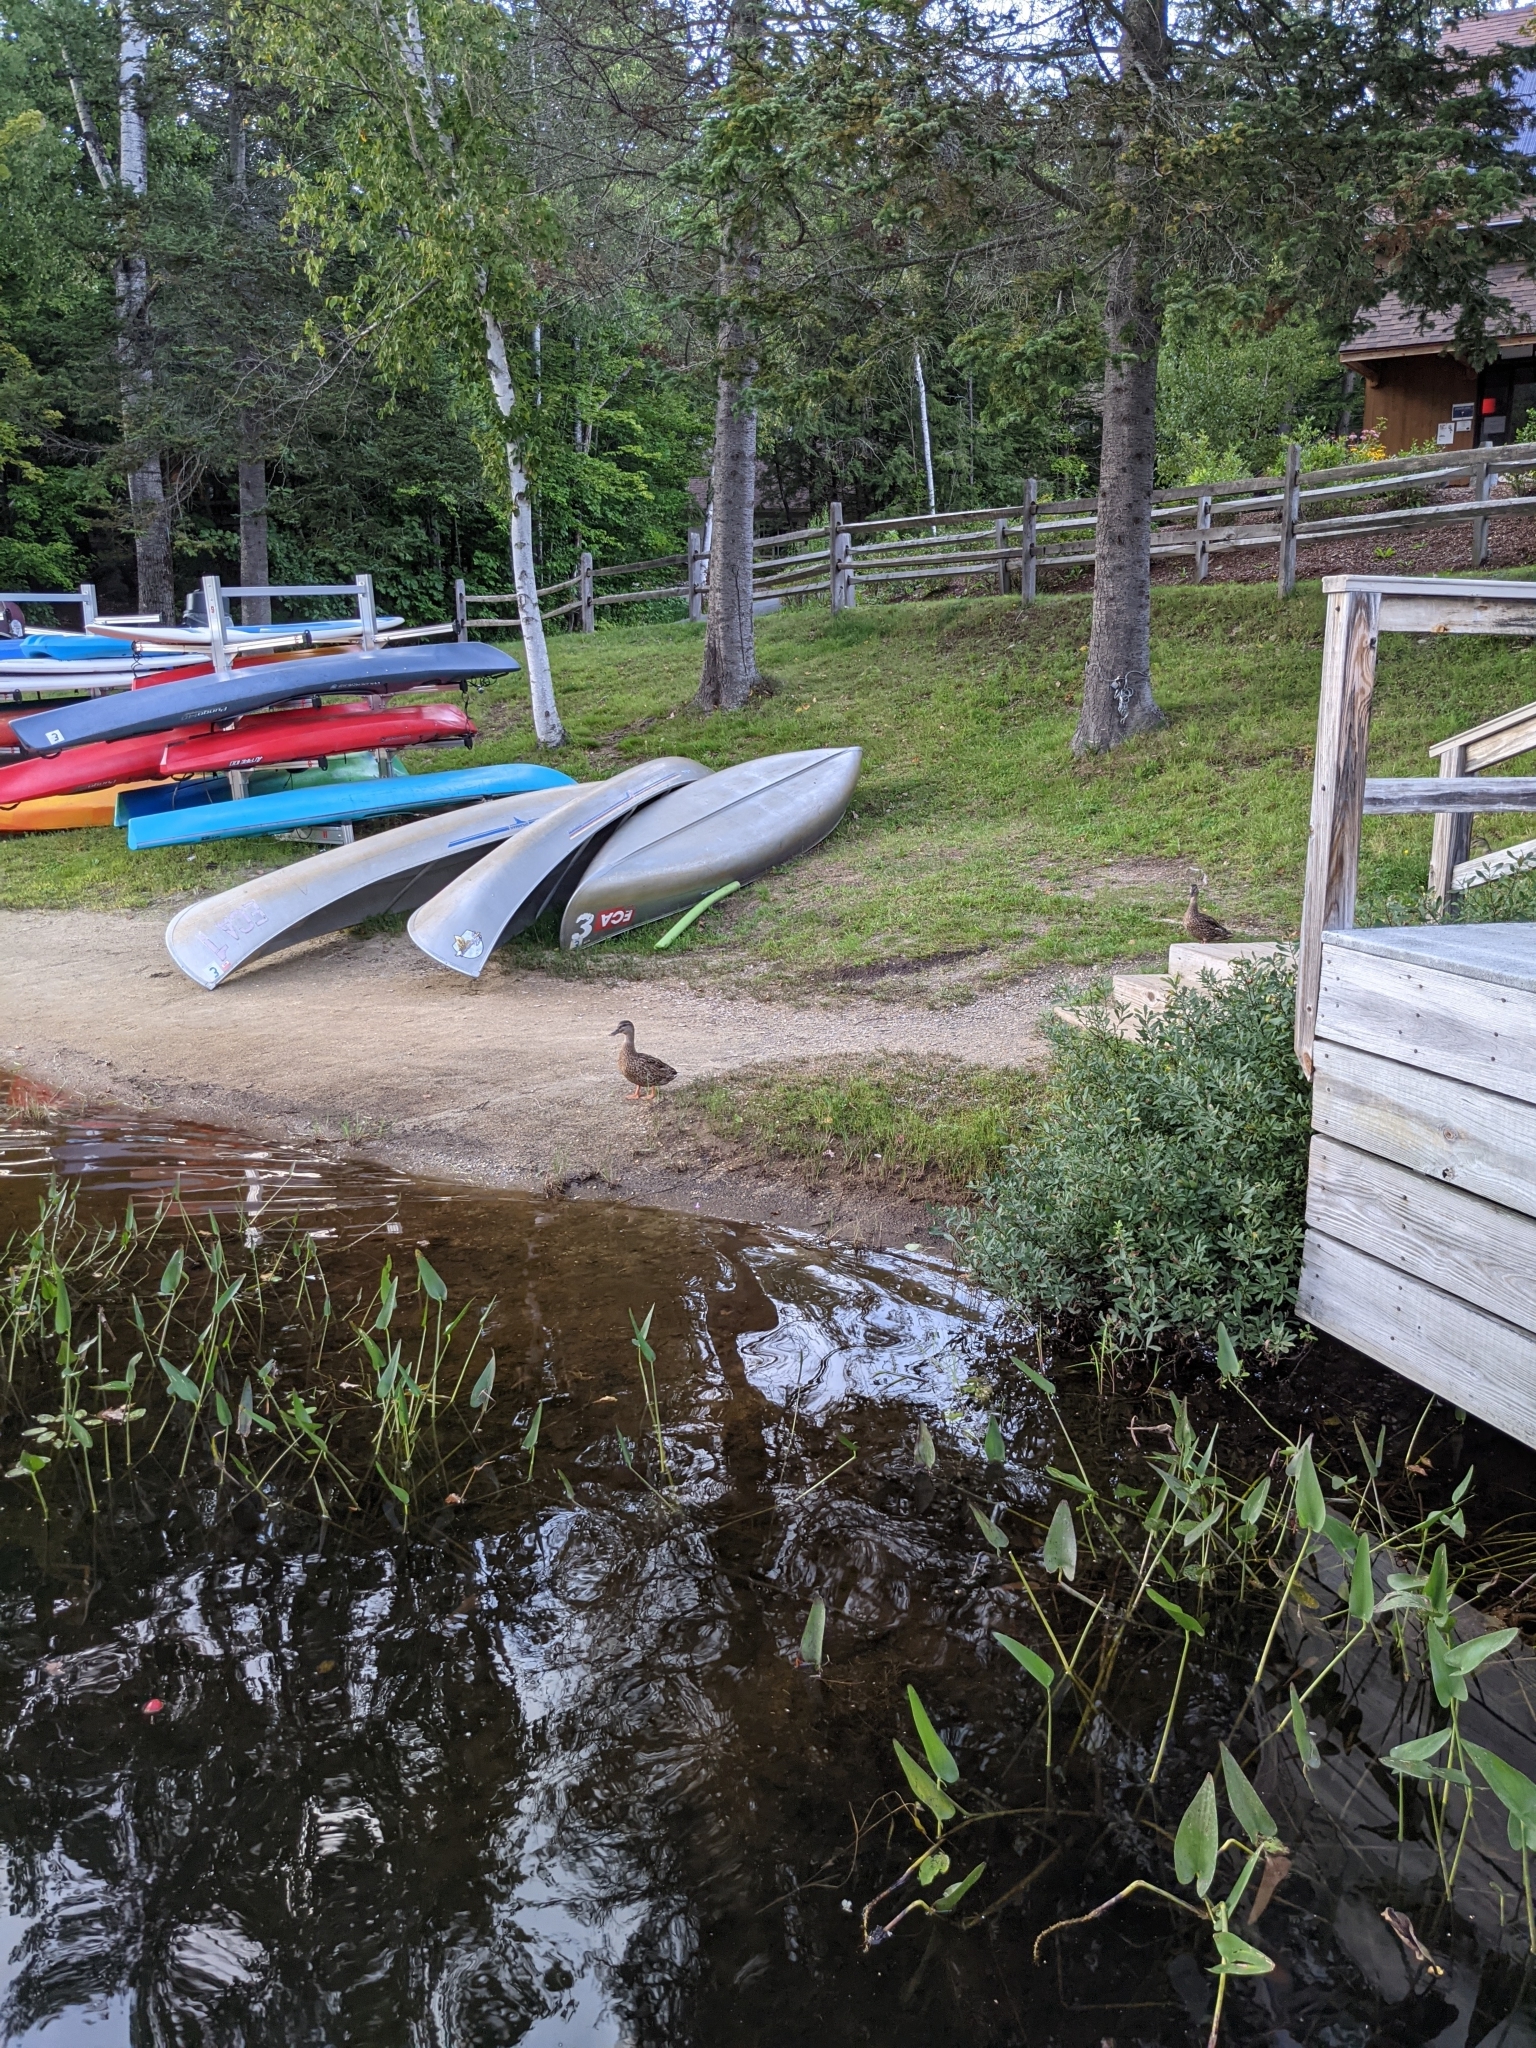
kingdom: Animalia
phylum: Chordata
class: Aves
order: Anseriformes
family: Anatidae
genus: Anas
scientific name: Anas platyrhynchos
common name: Mallard
